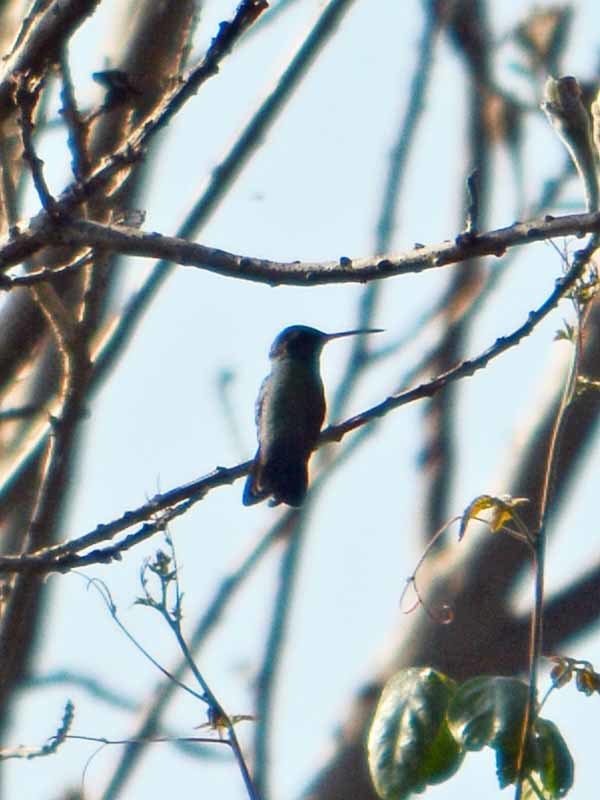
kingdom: Animalia
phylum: Chordata
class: Aves
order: Apodiformes
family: Trochilidae
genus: Cynanthus
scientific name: Cynanthus latirostris
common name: Broad-billed hummingbird
